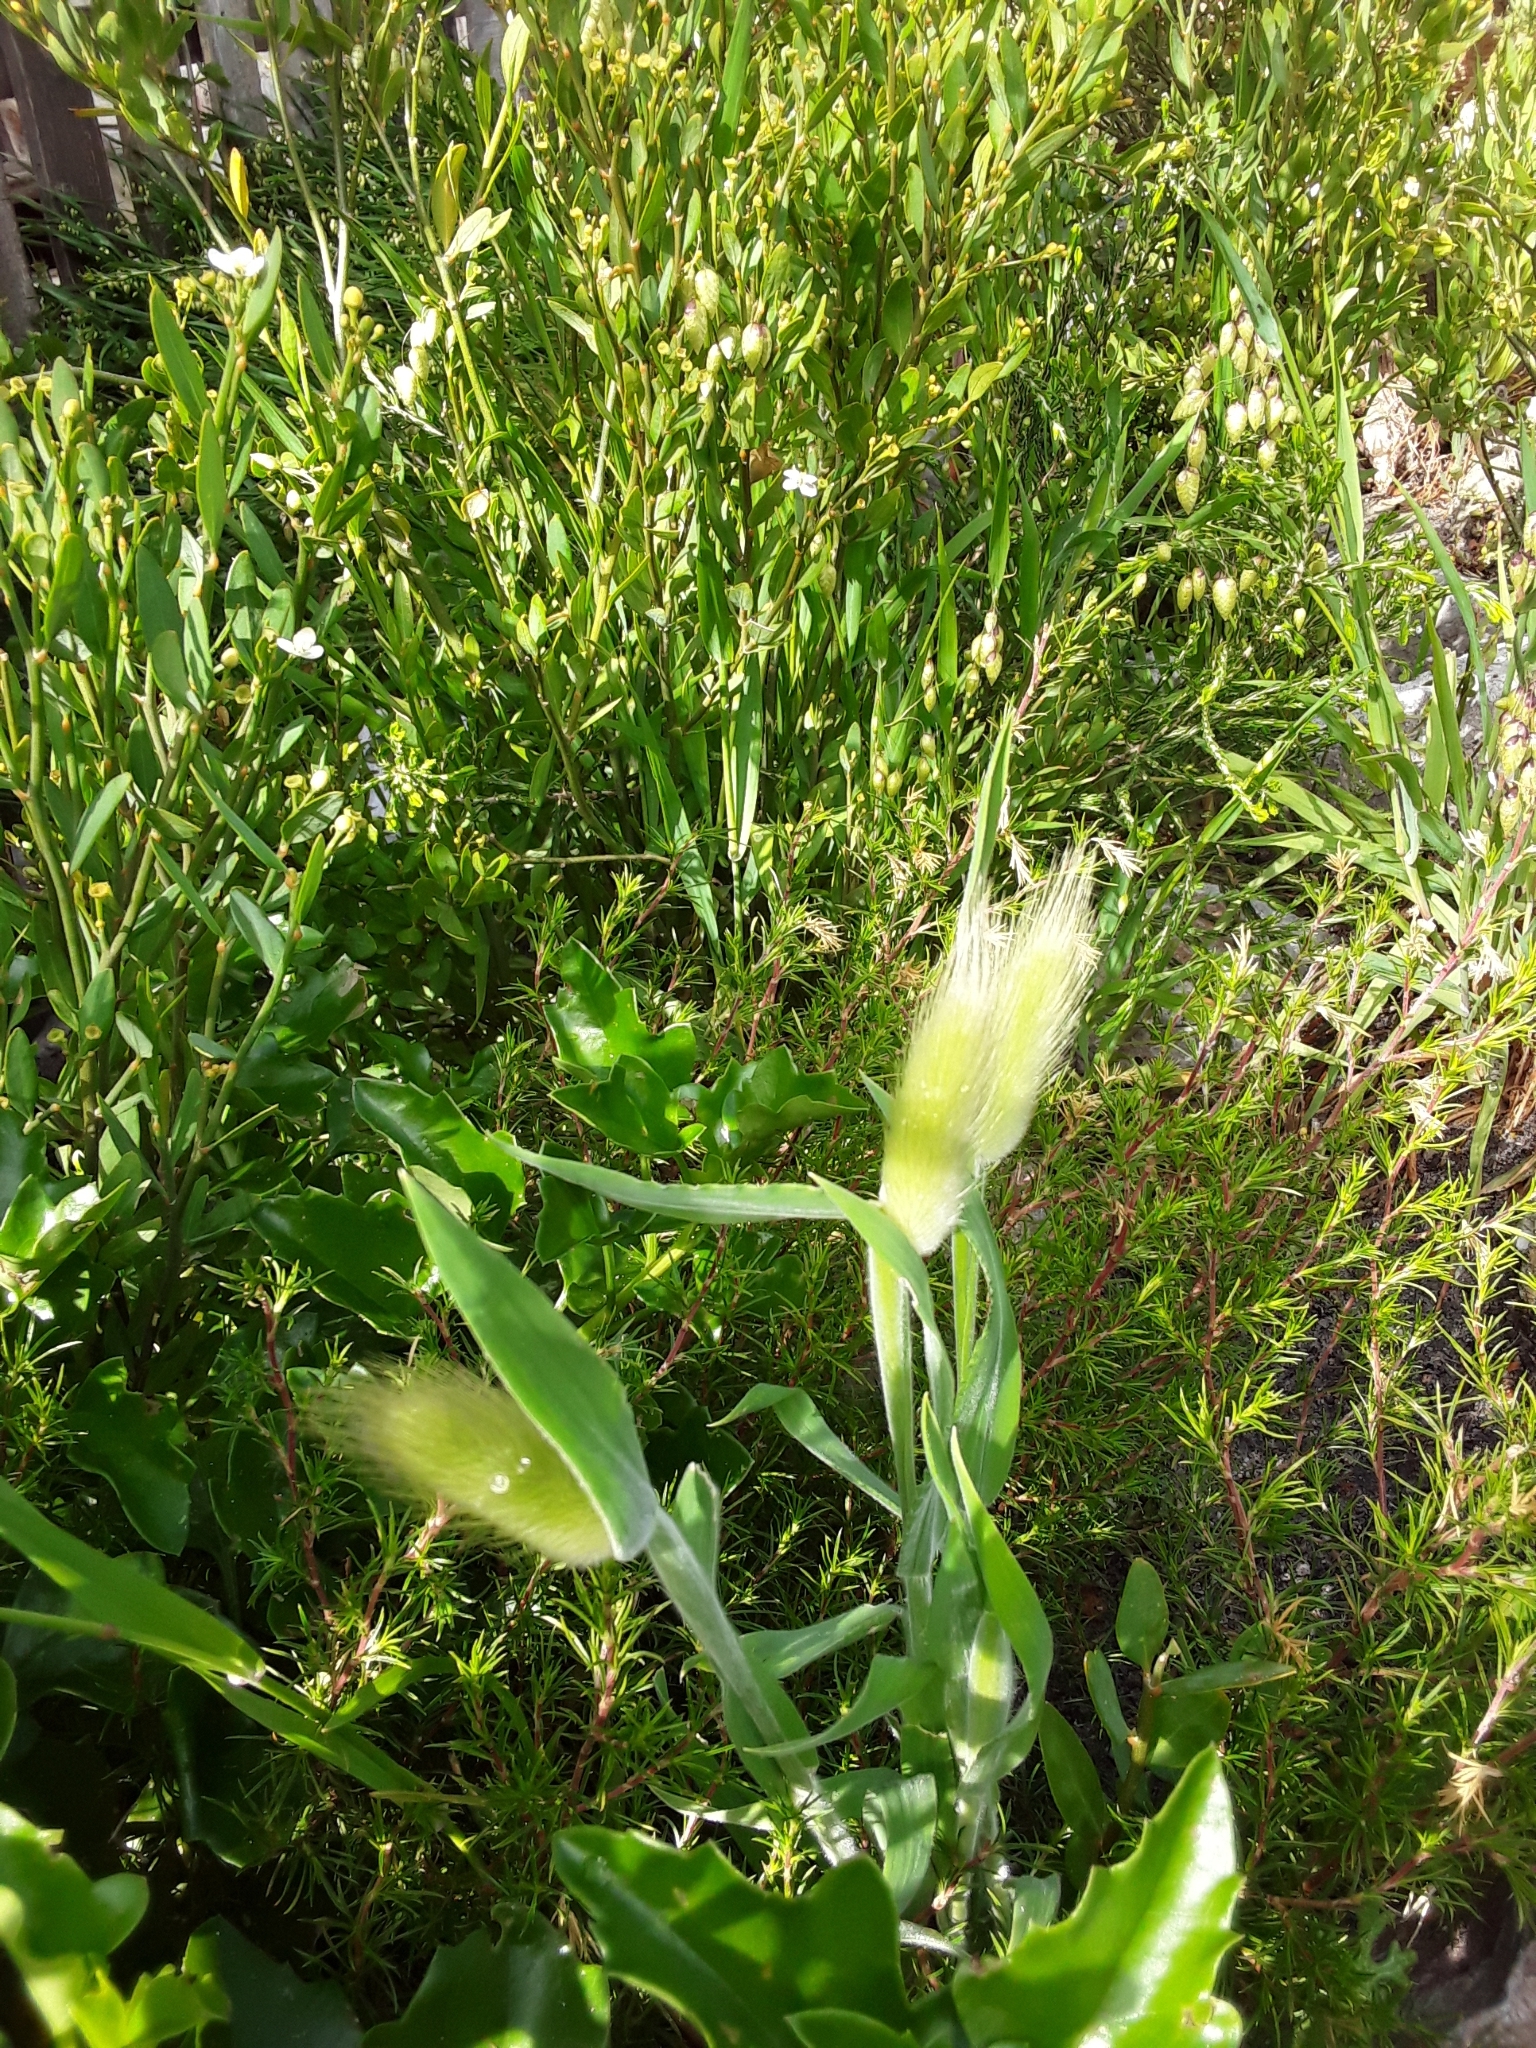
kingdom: Plantae
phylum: Tracheophyta
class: Liliopsida
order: Poales
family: Poaceae
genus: Lagurus
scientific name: Lagurus ovatus
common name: Hare's-tail
